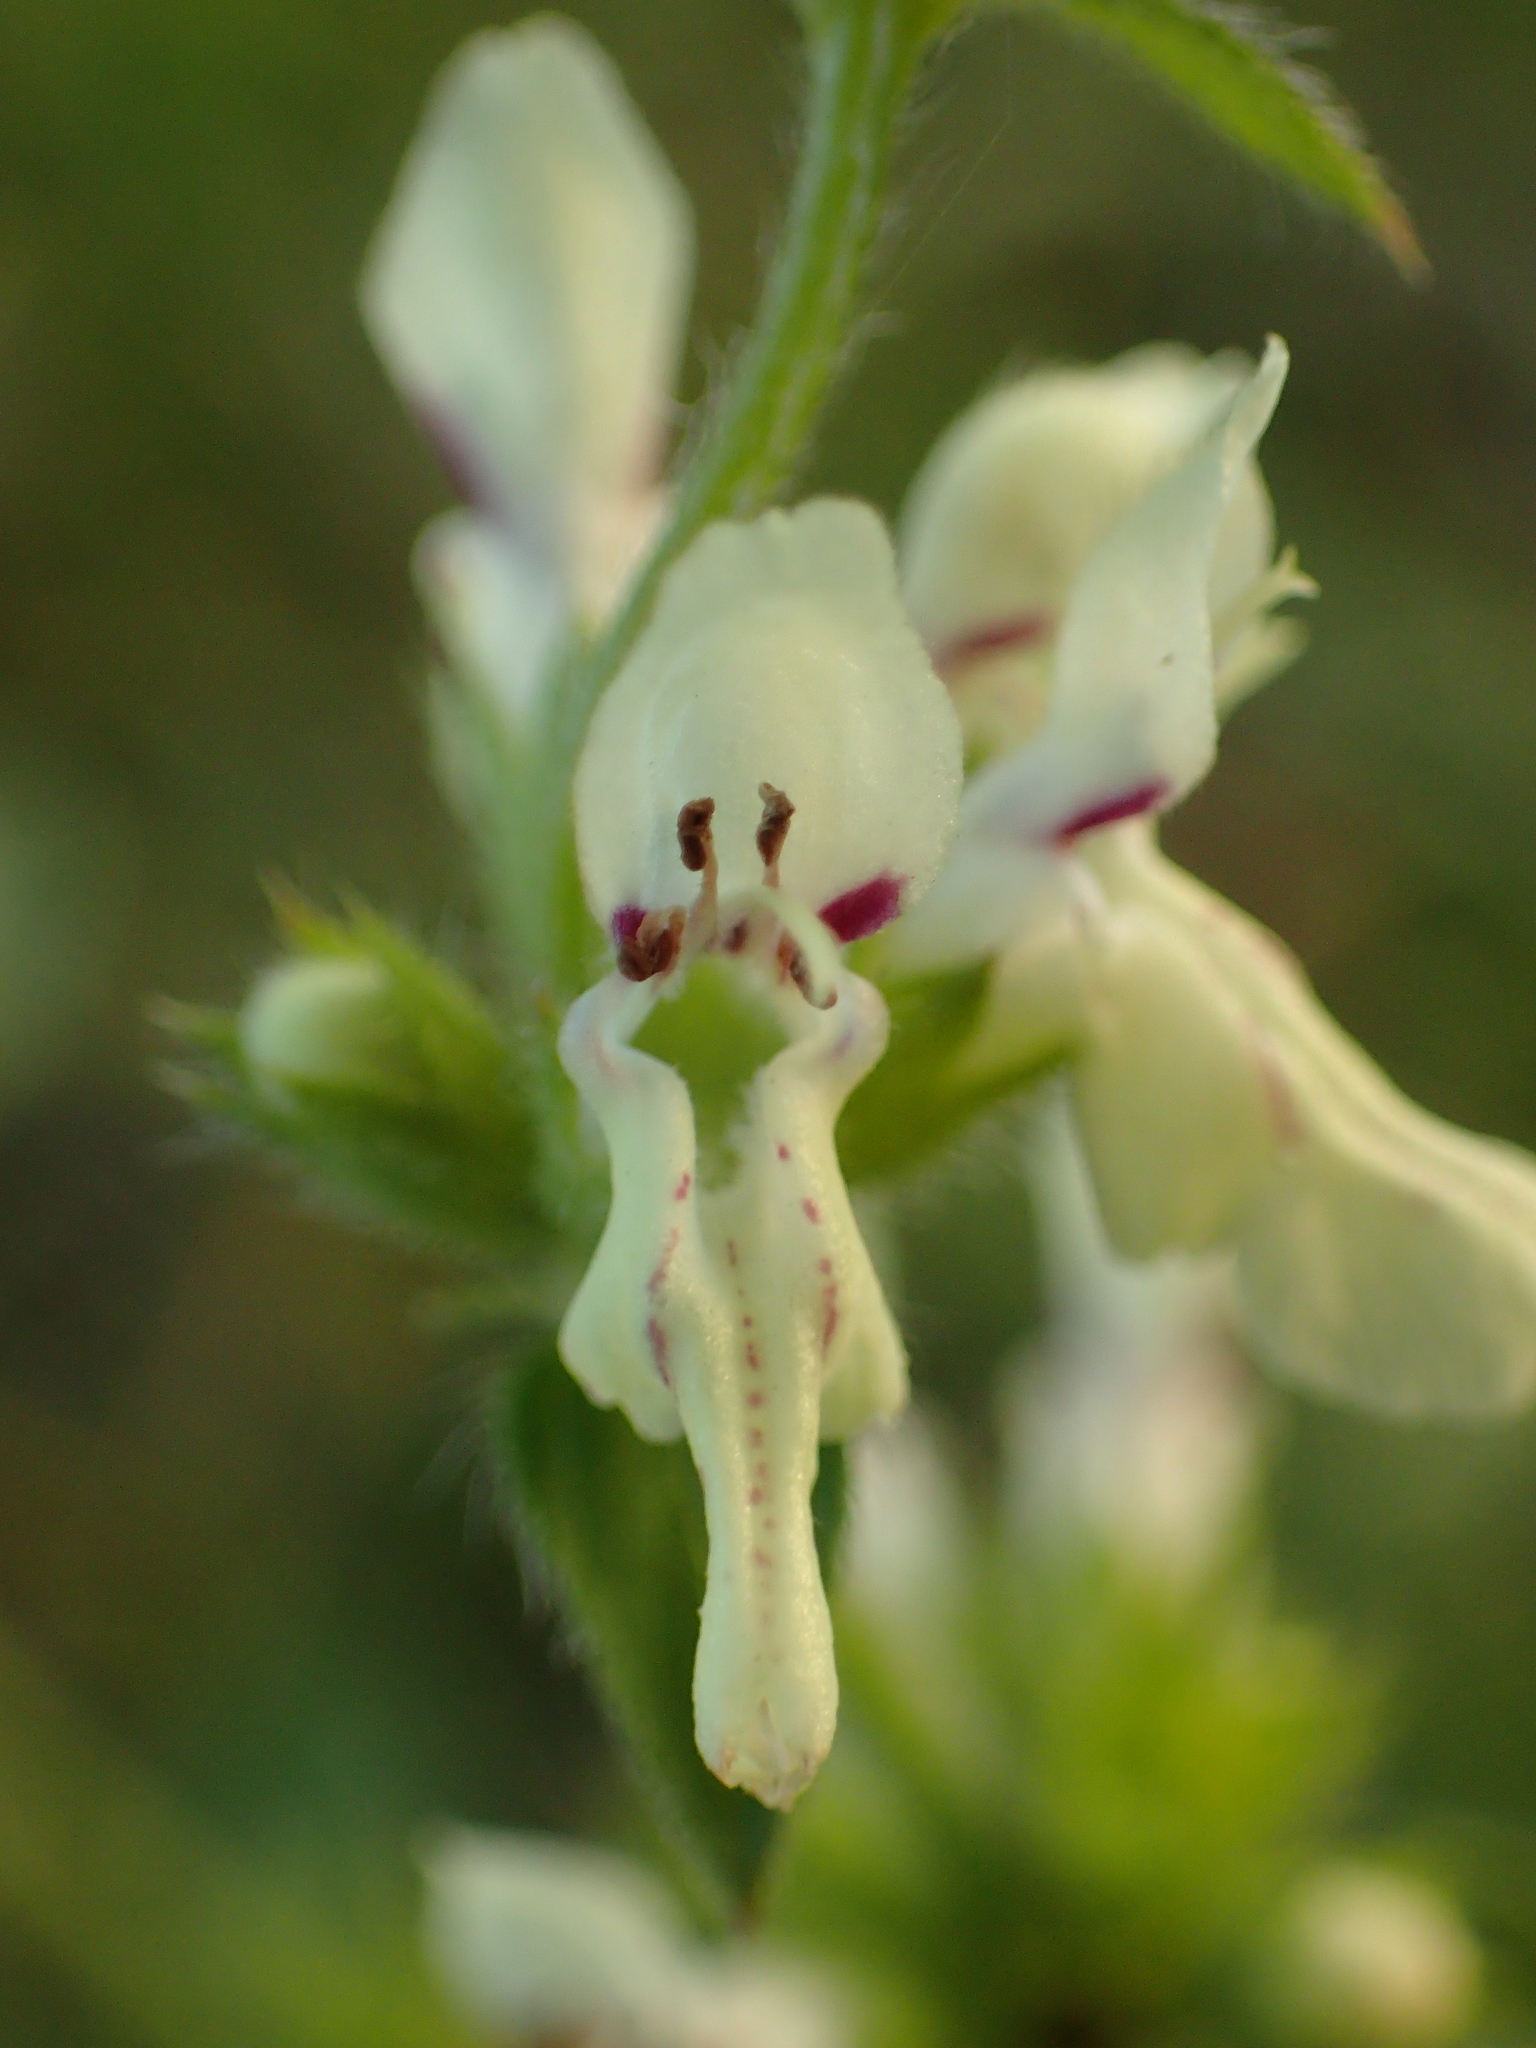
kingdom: Plantae
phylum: Tracheophyta
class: Magnoliopsida
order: Lamiales
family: Lamiaceae
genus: Stachys
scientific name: Stachys recta
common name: Perennial yellow-woundwort
